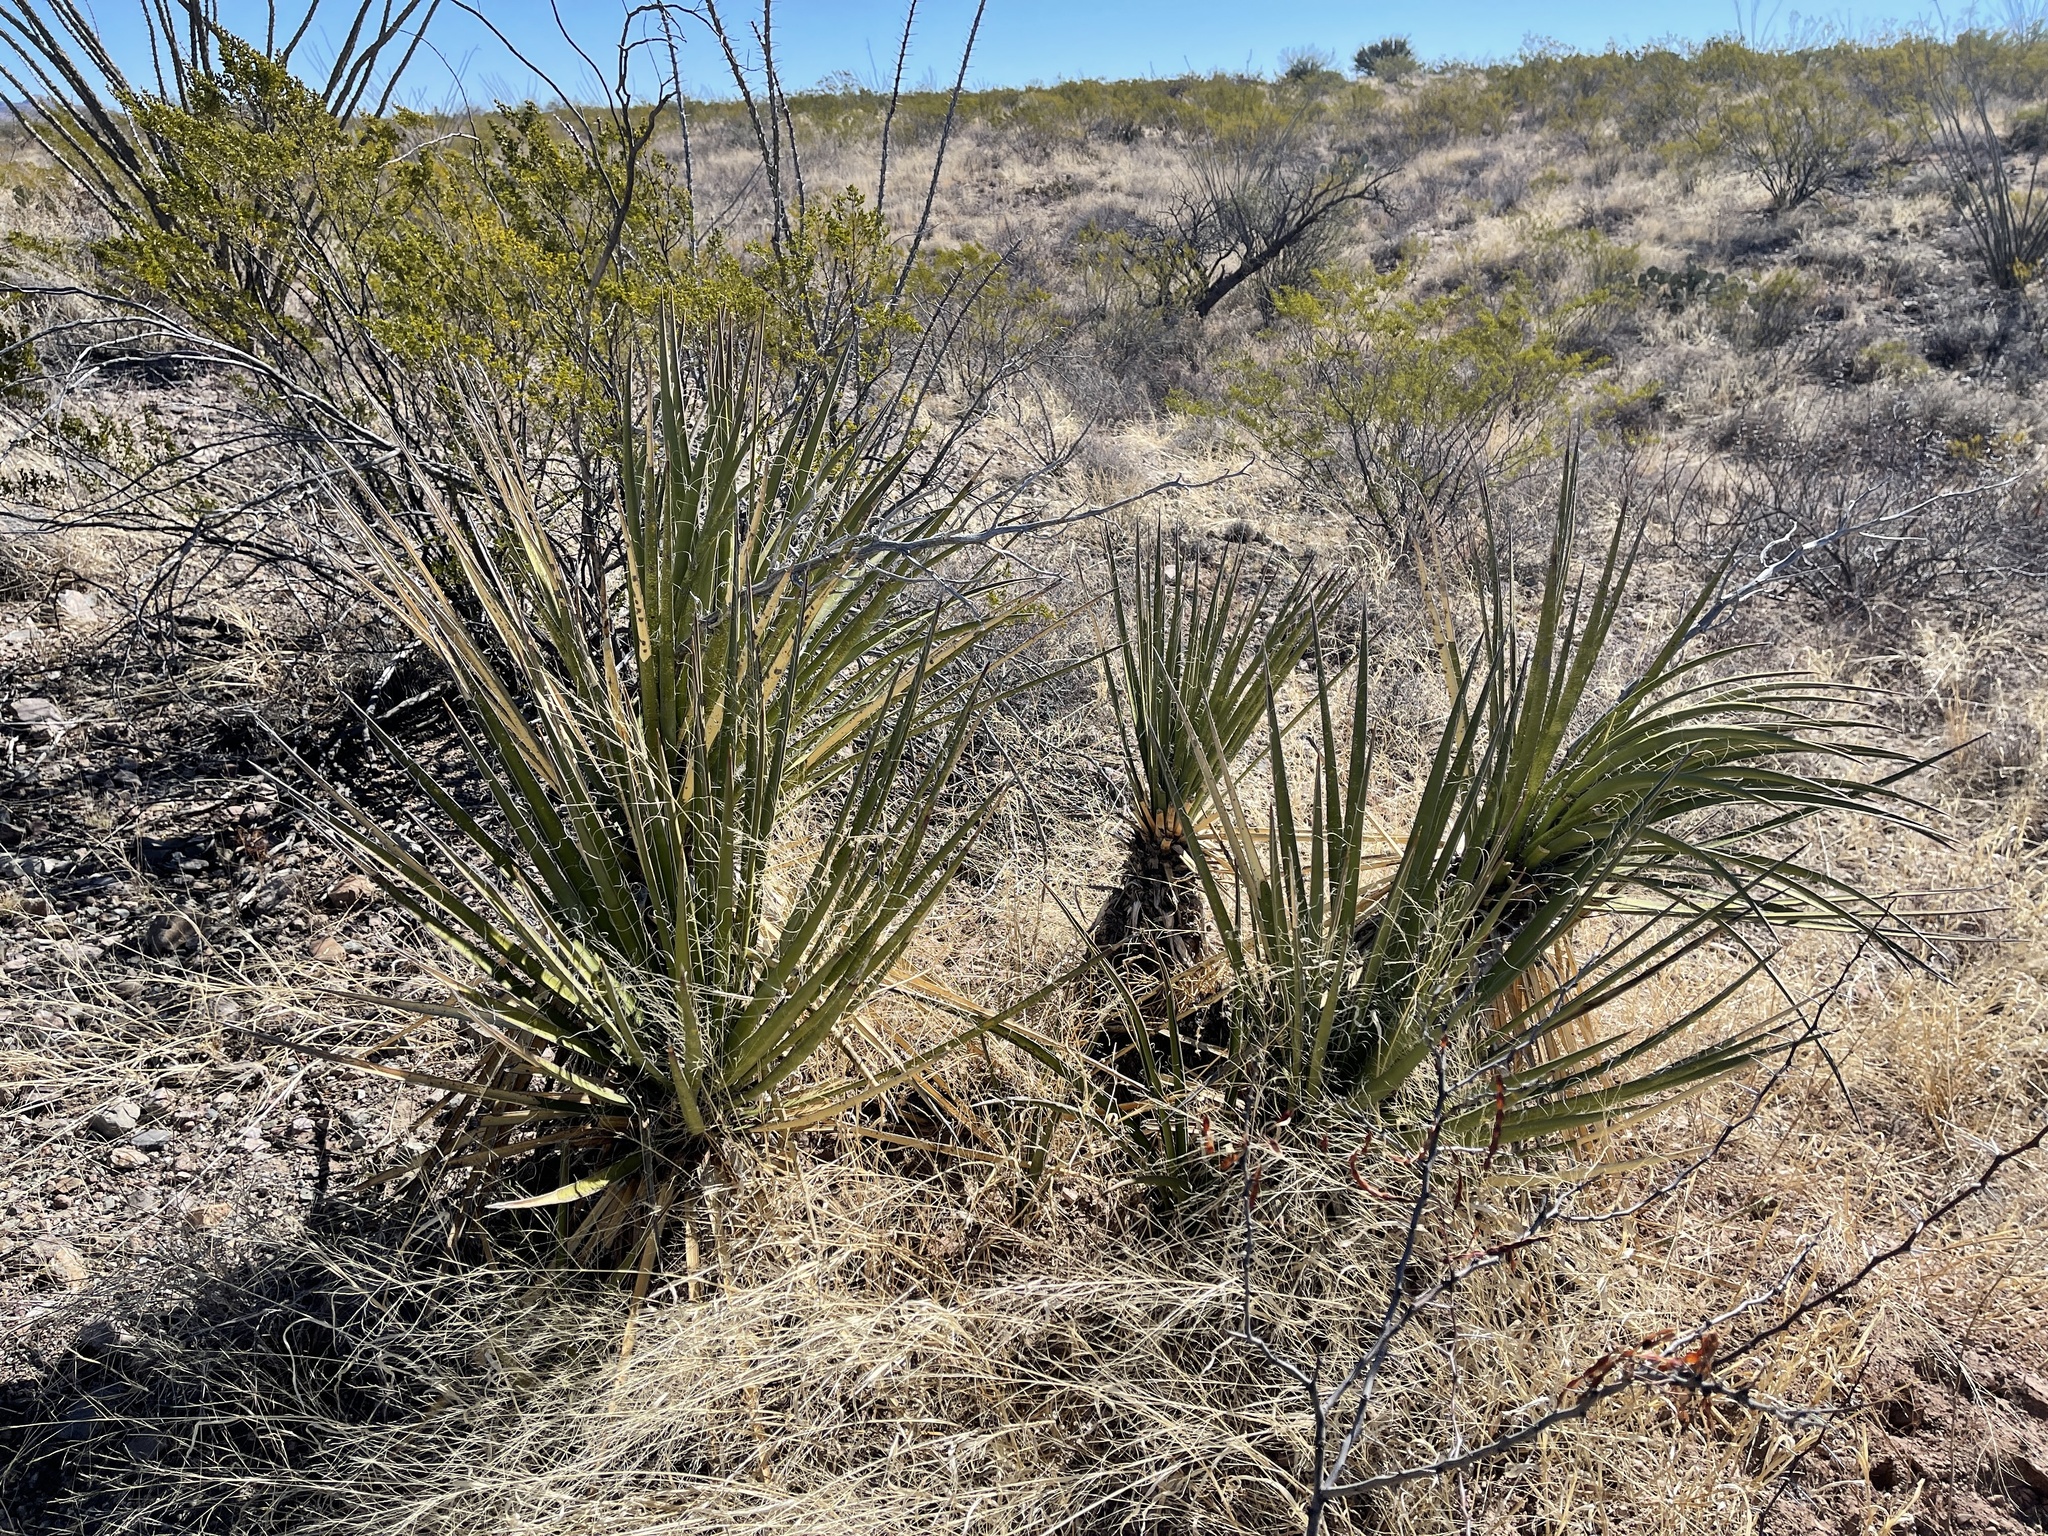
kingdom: Plantae
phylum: Tracheophyta
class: Liliopsida
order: Asparagales
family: Asparagaceae
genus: Yucca
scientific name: Yucca baccata
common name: Banana yucca
